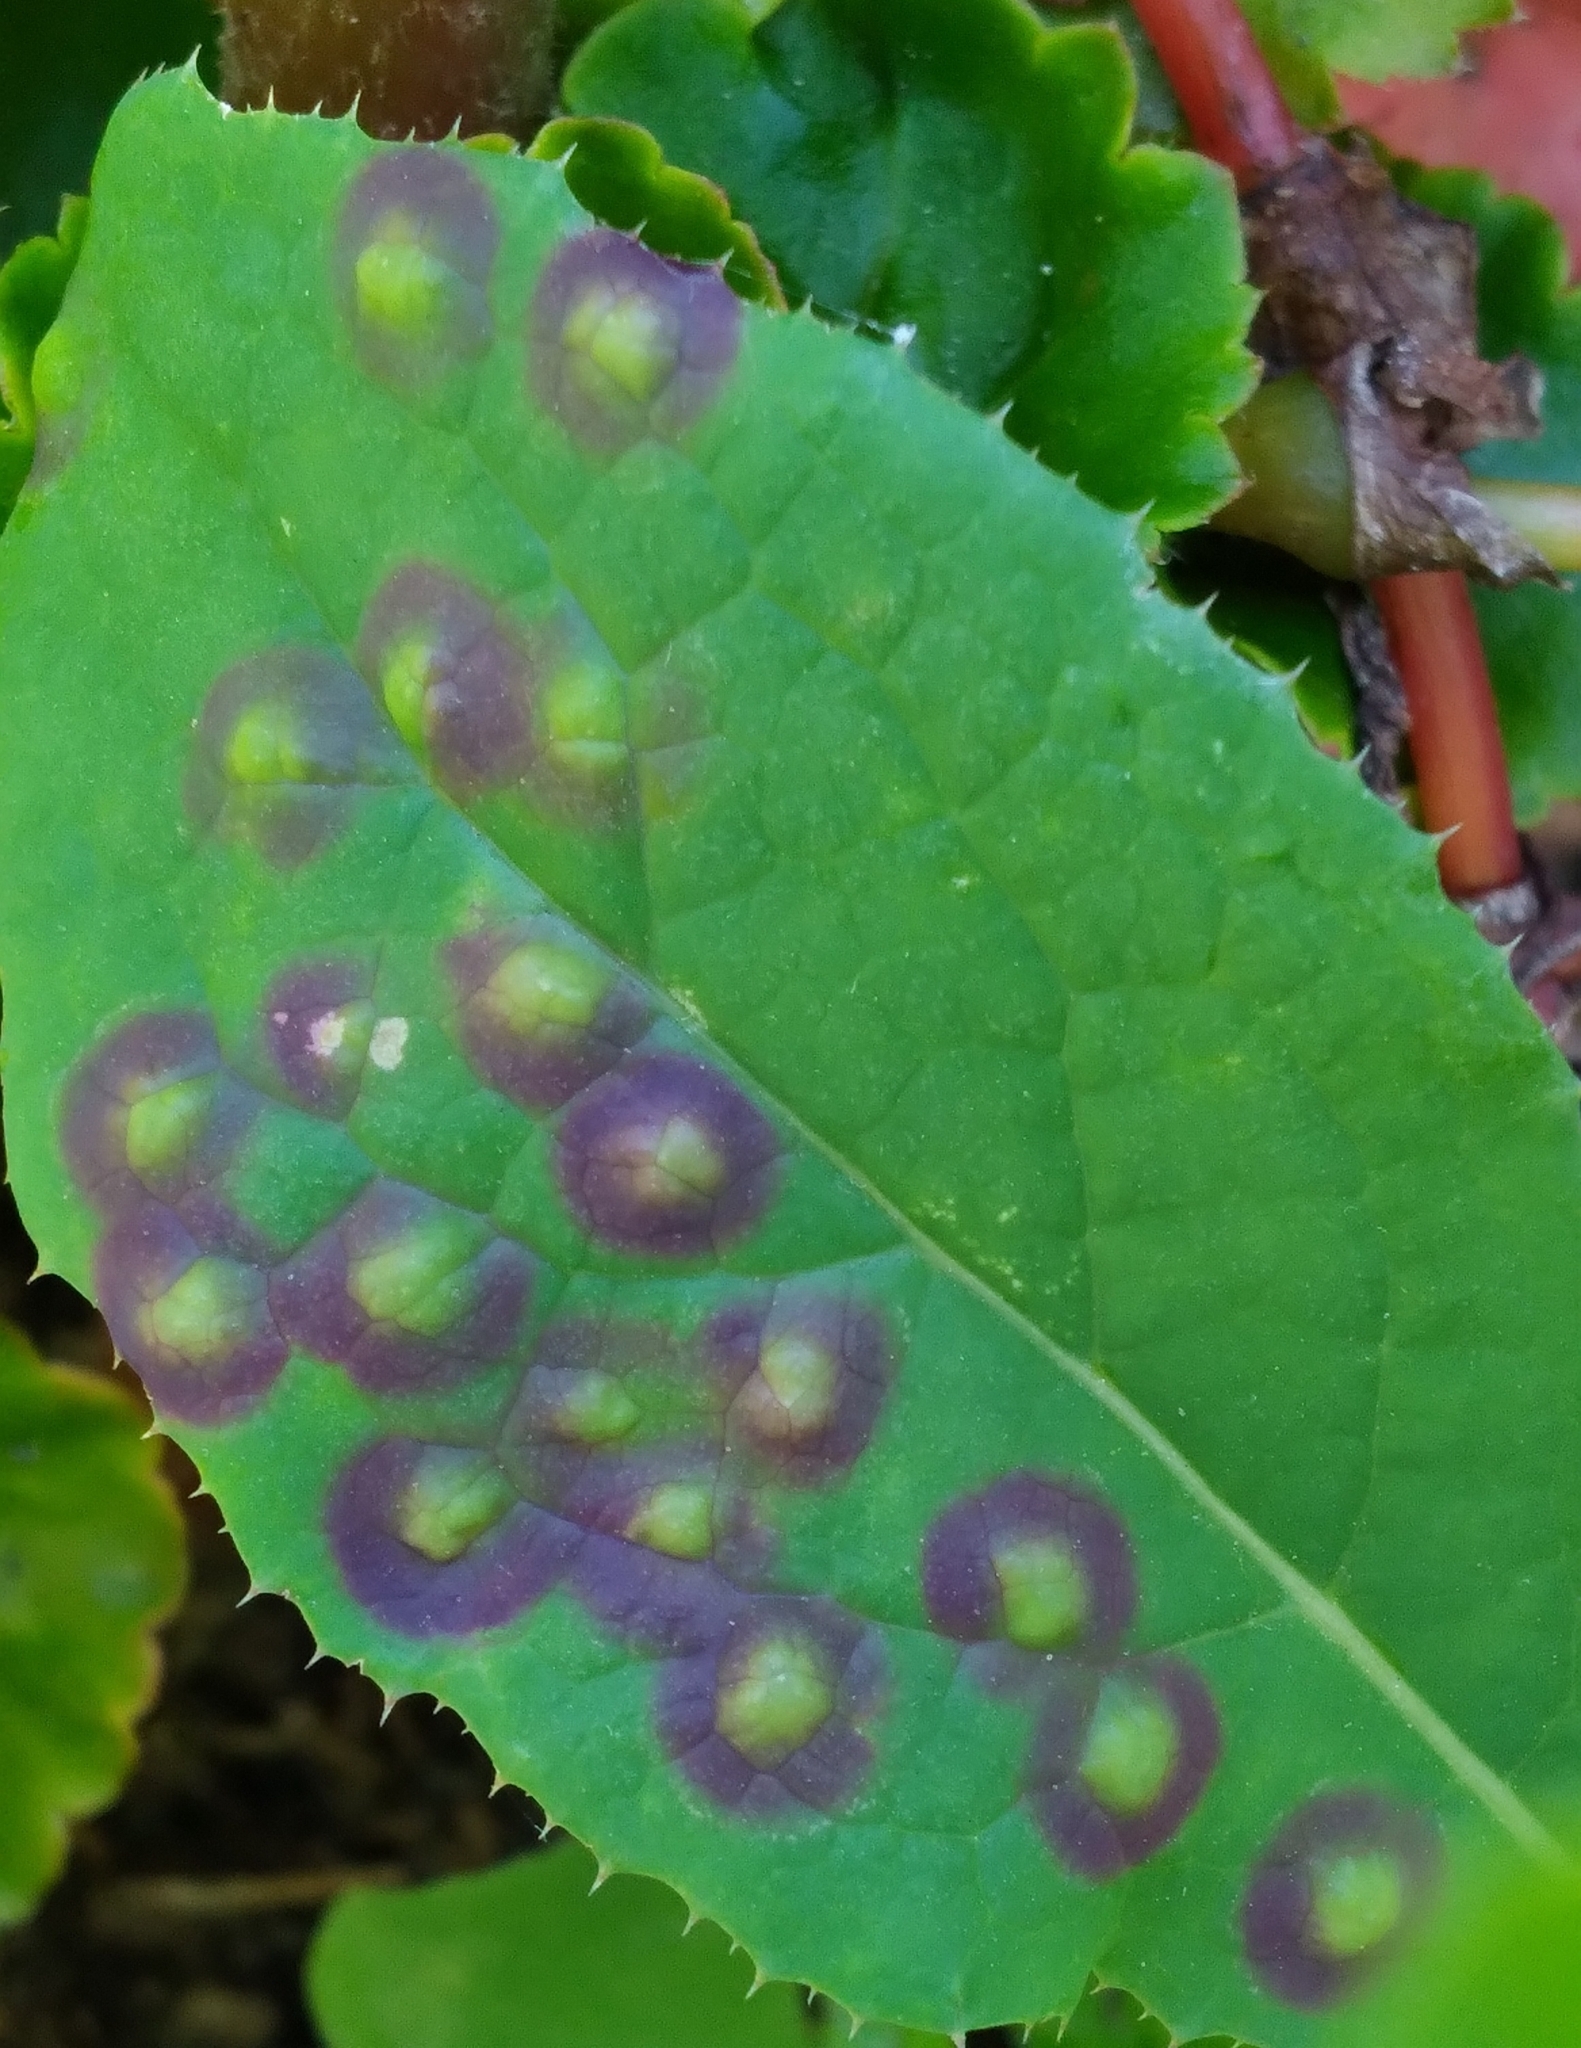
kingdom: Animalia
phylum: Arthropoda
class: Insecta
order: Diptera
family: Cecidomyiidae
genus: Cystiphora
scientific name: Cystiphora sonchi
